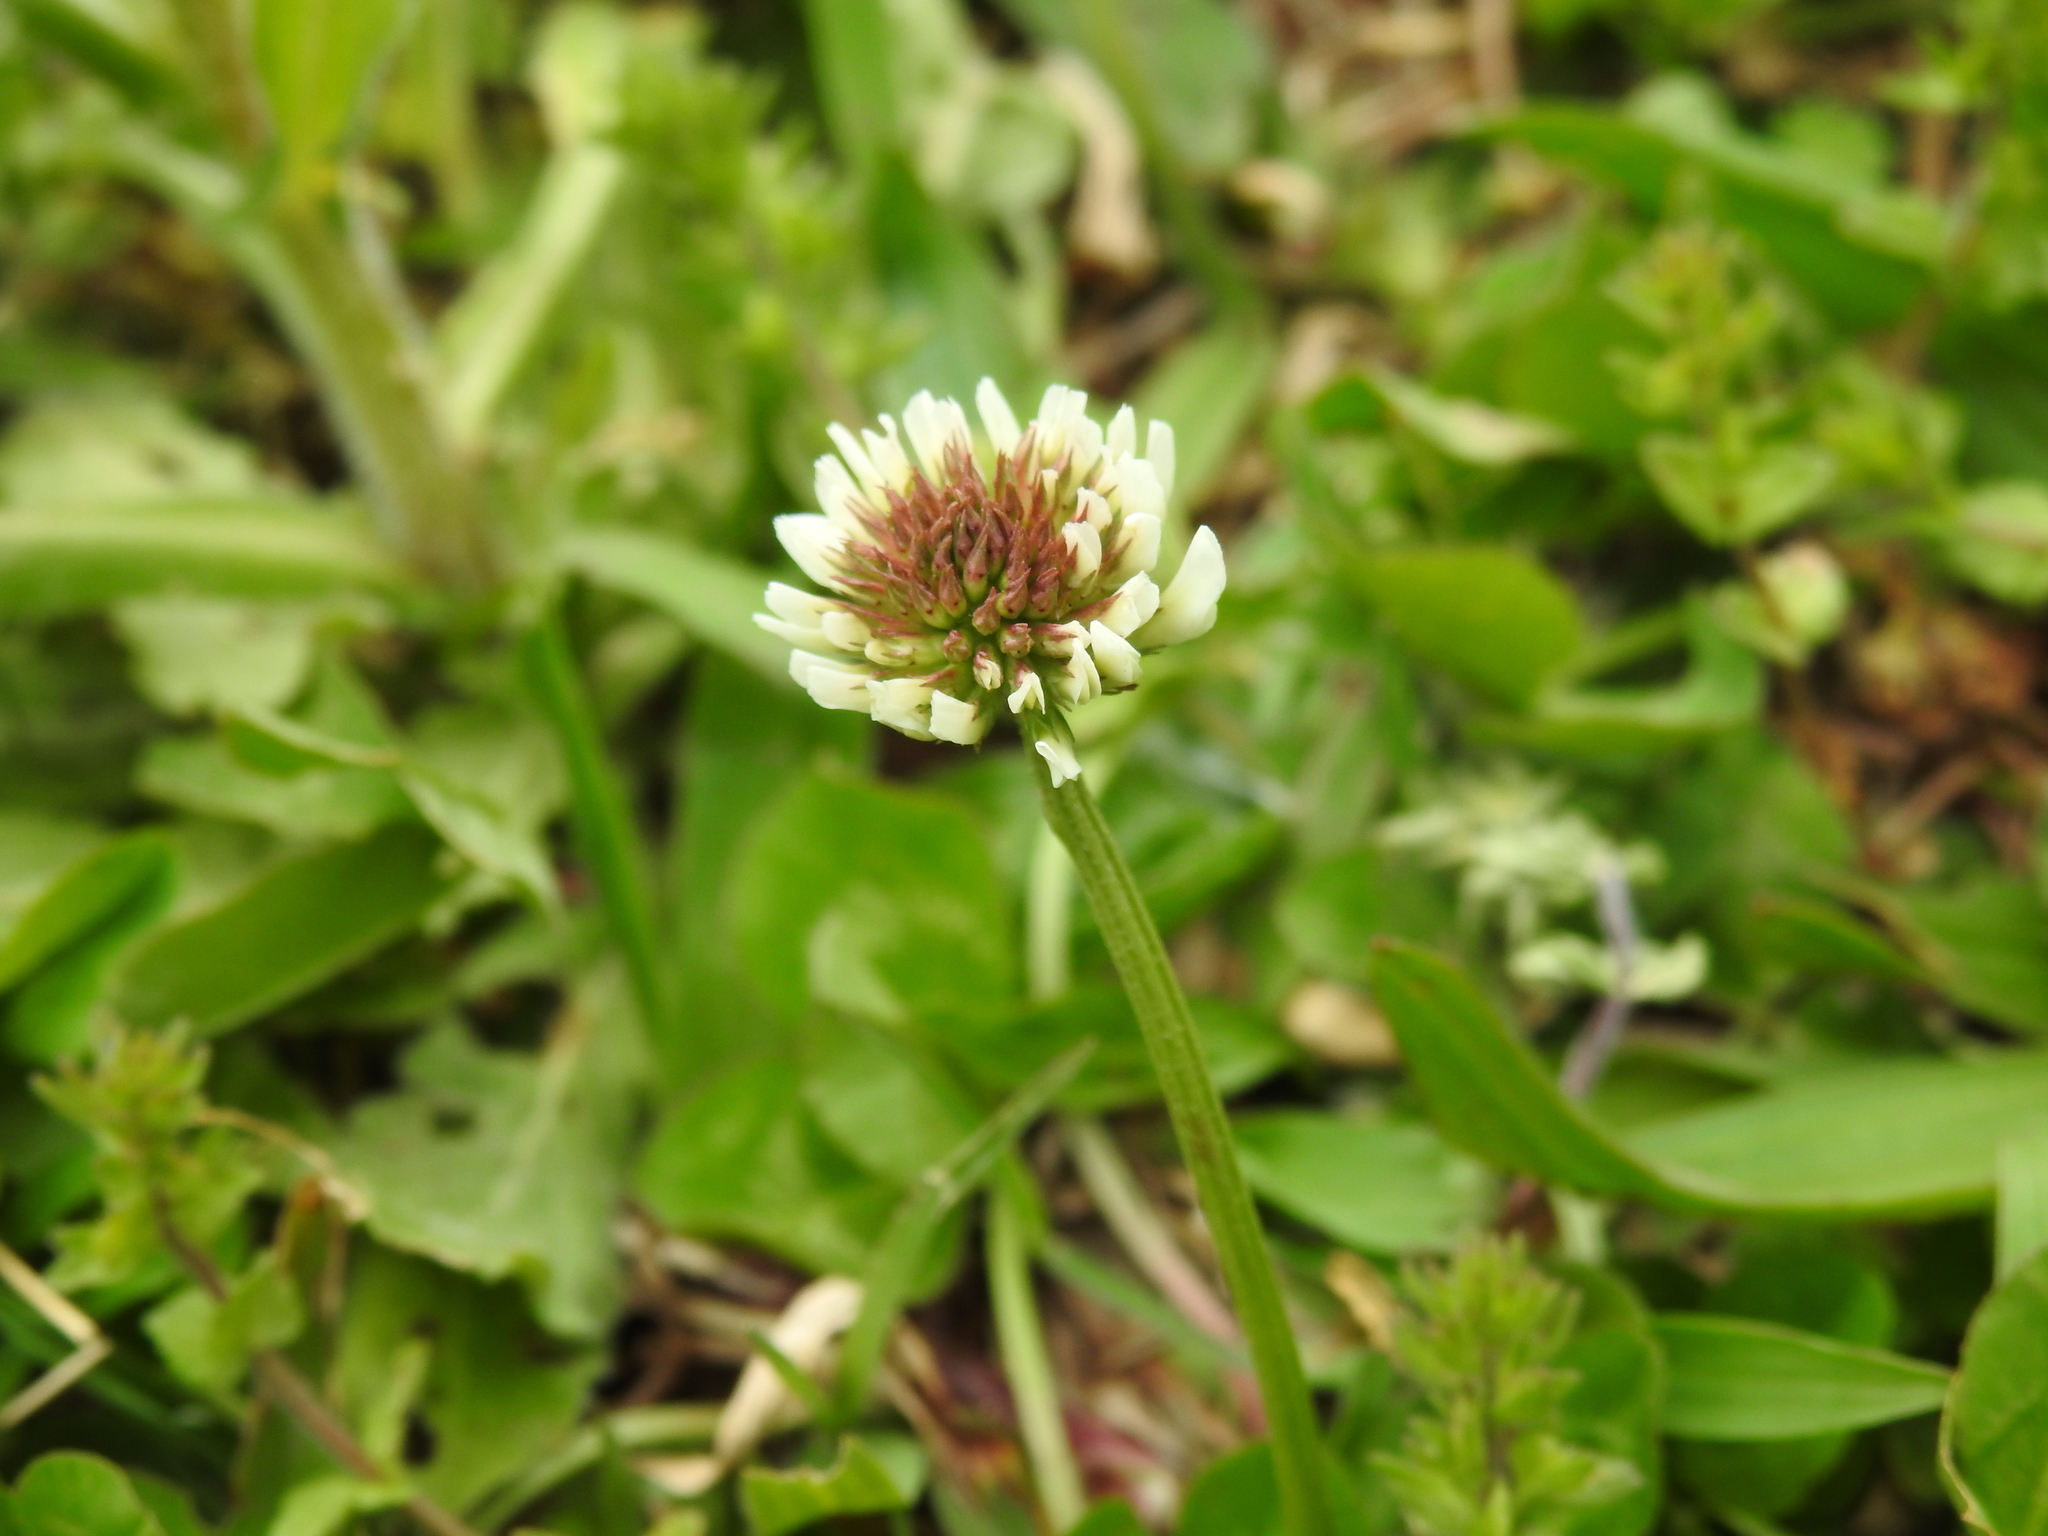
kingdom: Plantae
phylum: Tracheophyta
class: Magnoliopsida
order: Fabales
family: Fabaceae
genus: Trifolium
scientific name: Trifolium repens
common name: White clover
